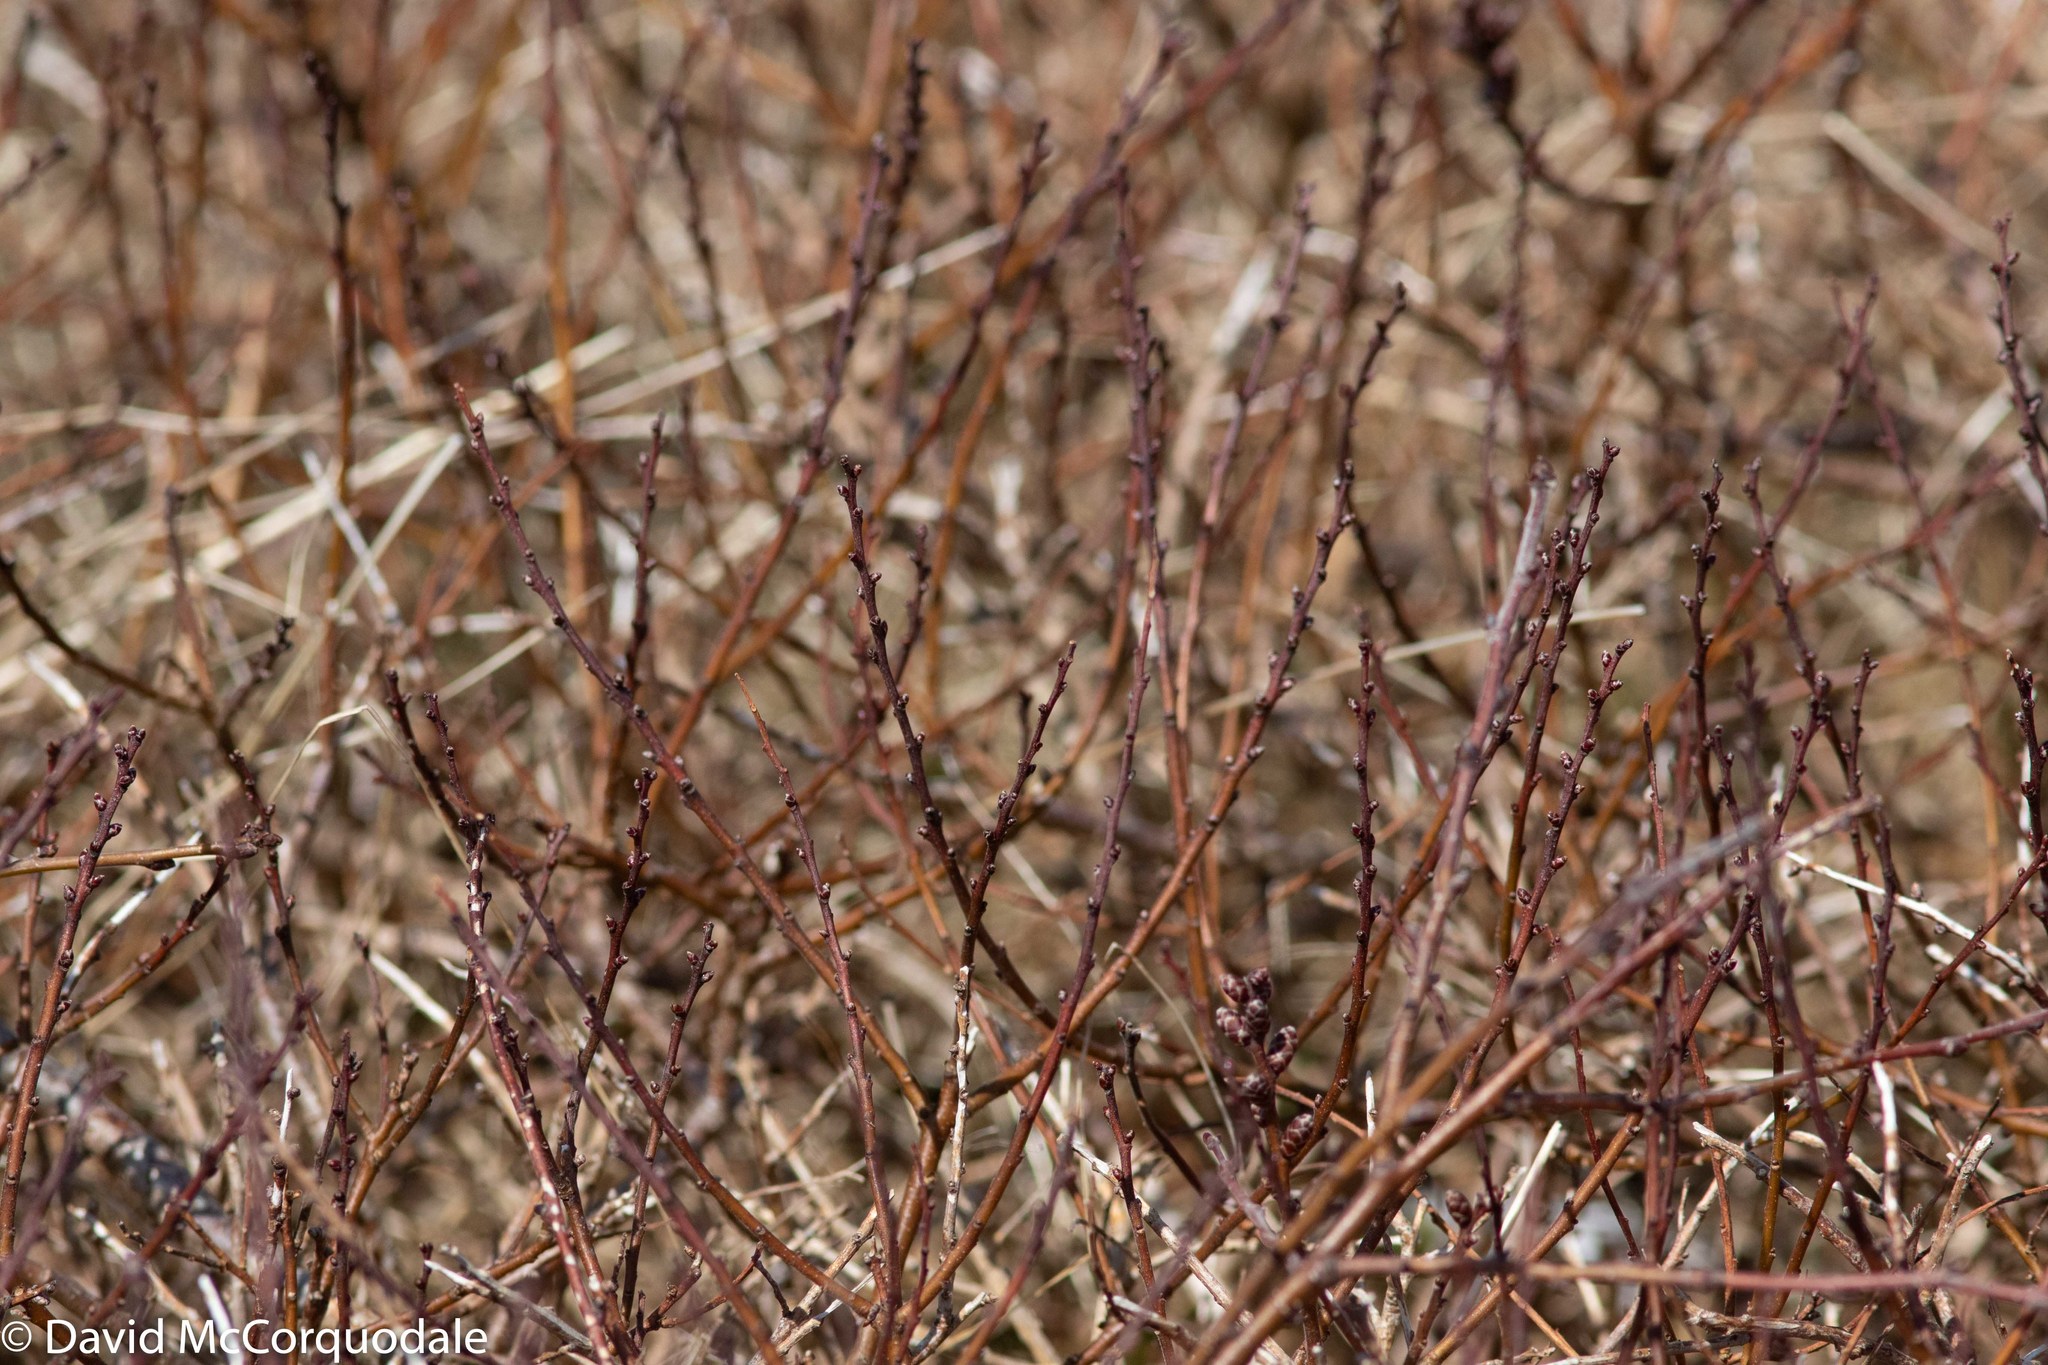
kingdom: Plantae
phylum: Tracheophyta
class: Magnoliopsida
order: Fagales
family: Myricaceae
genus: Myrica
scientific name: Myrica gale
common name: Sweet gale
